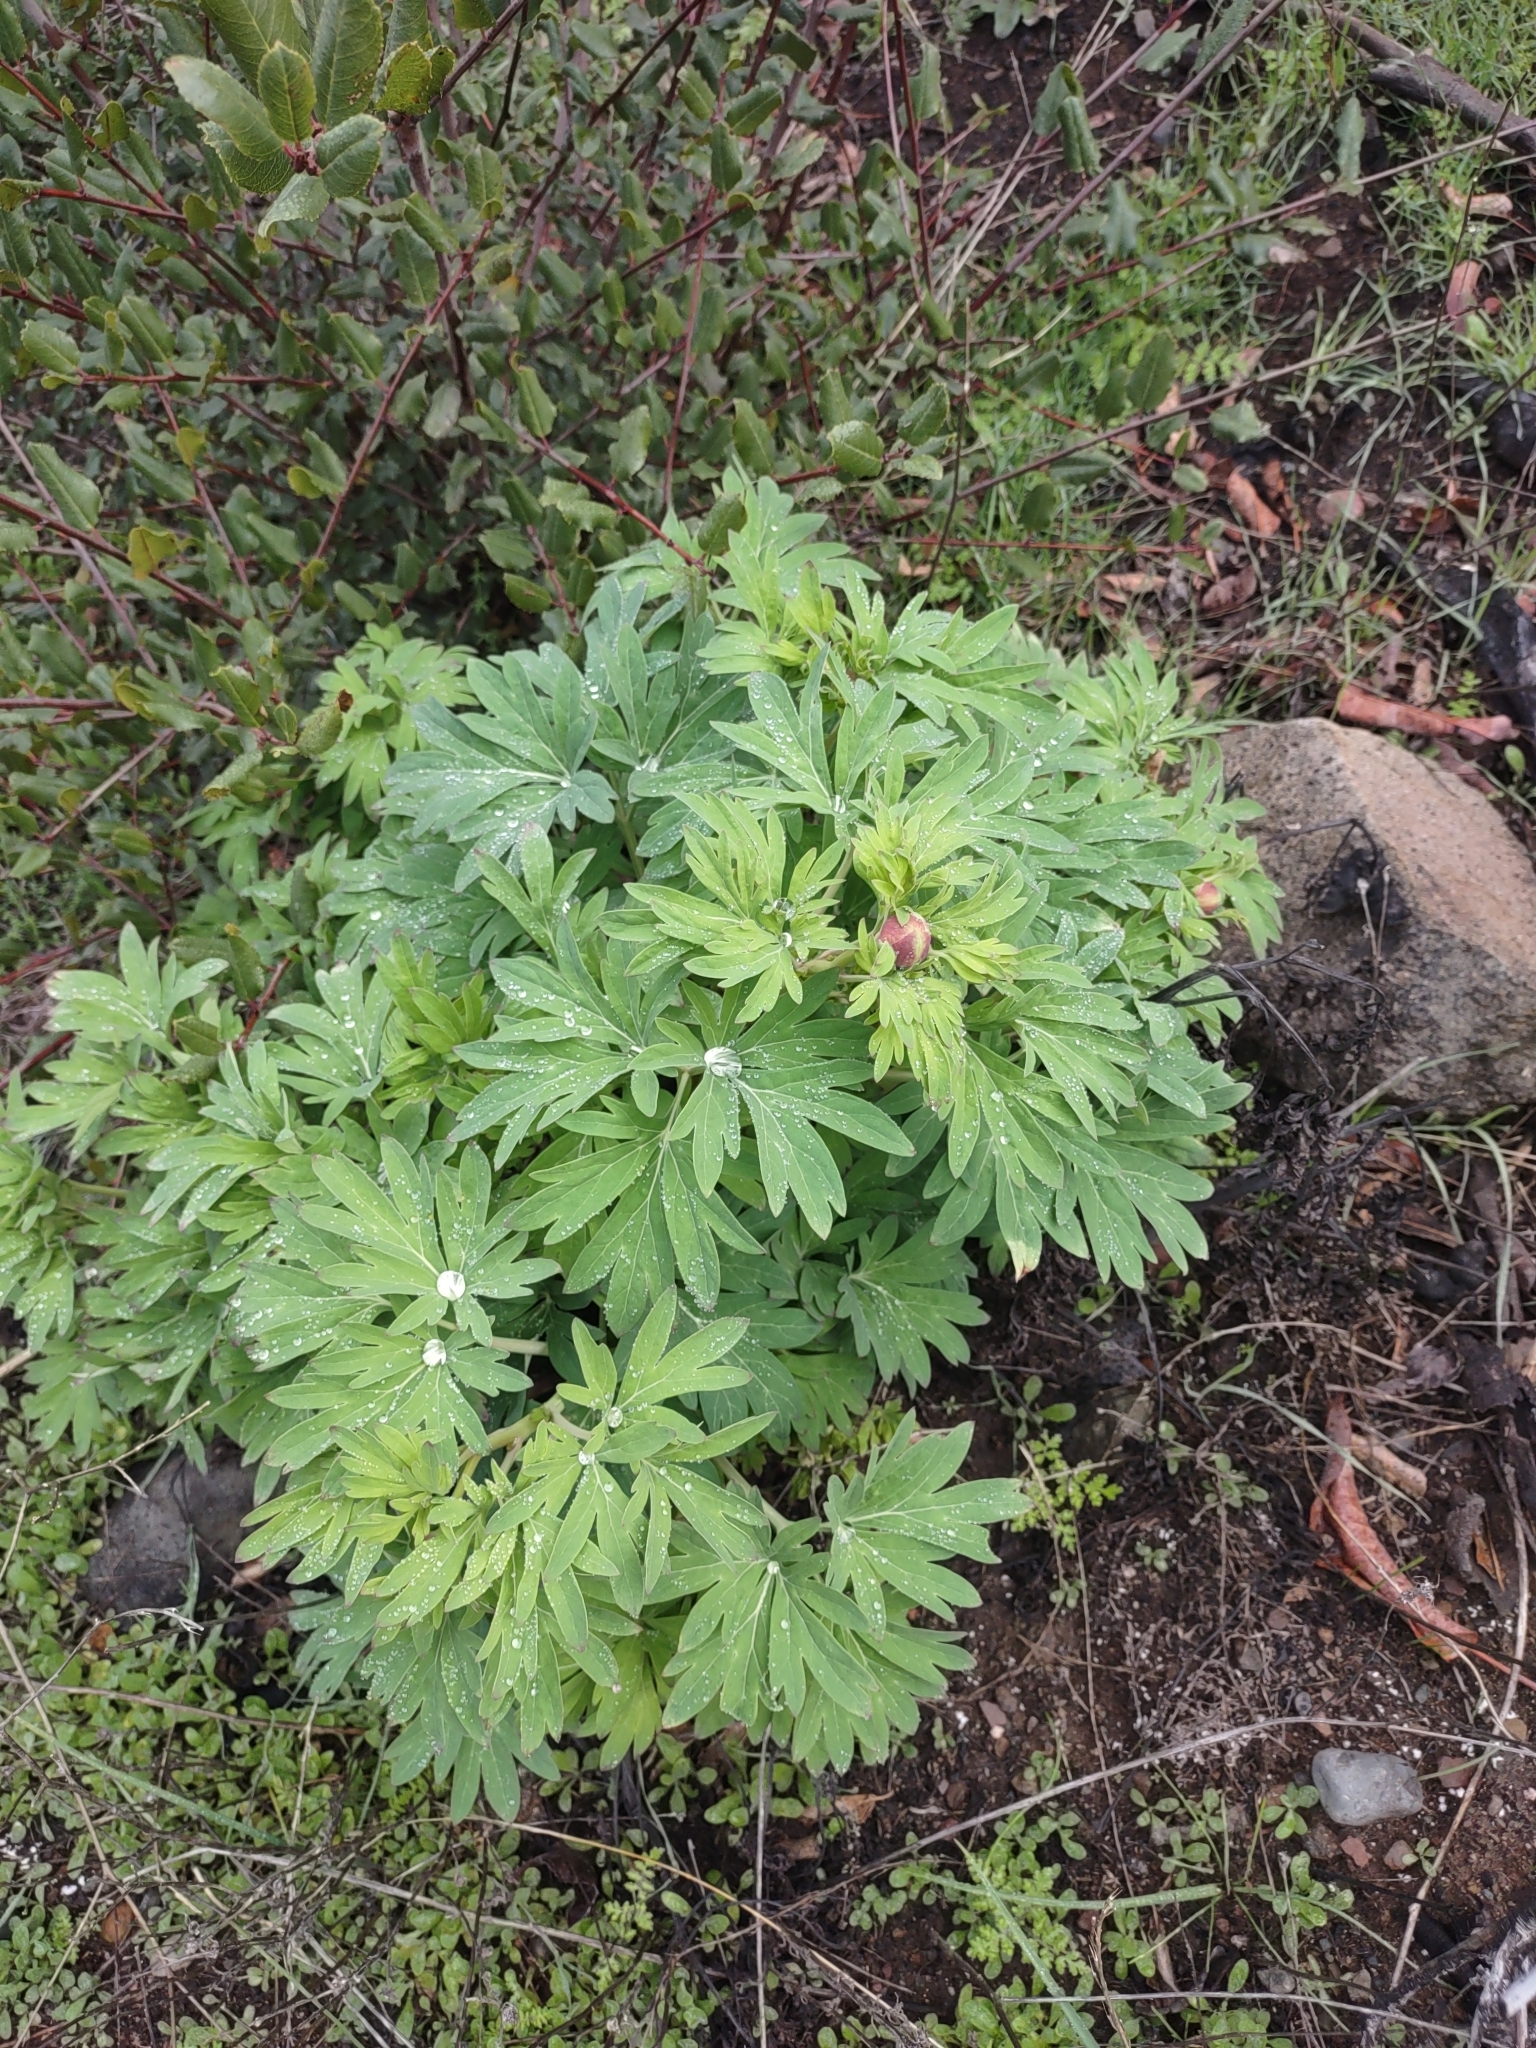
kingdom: Plantae
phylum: Tracheophyta
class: Magnoliopsida
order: Saxifragales
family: Paeoniaceae
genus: Paeonia
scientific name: Paeonia californica
